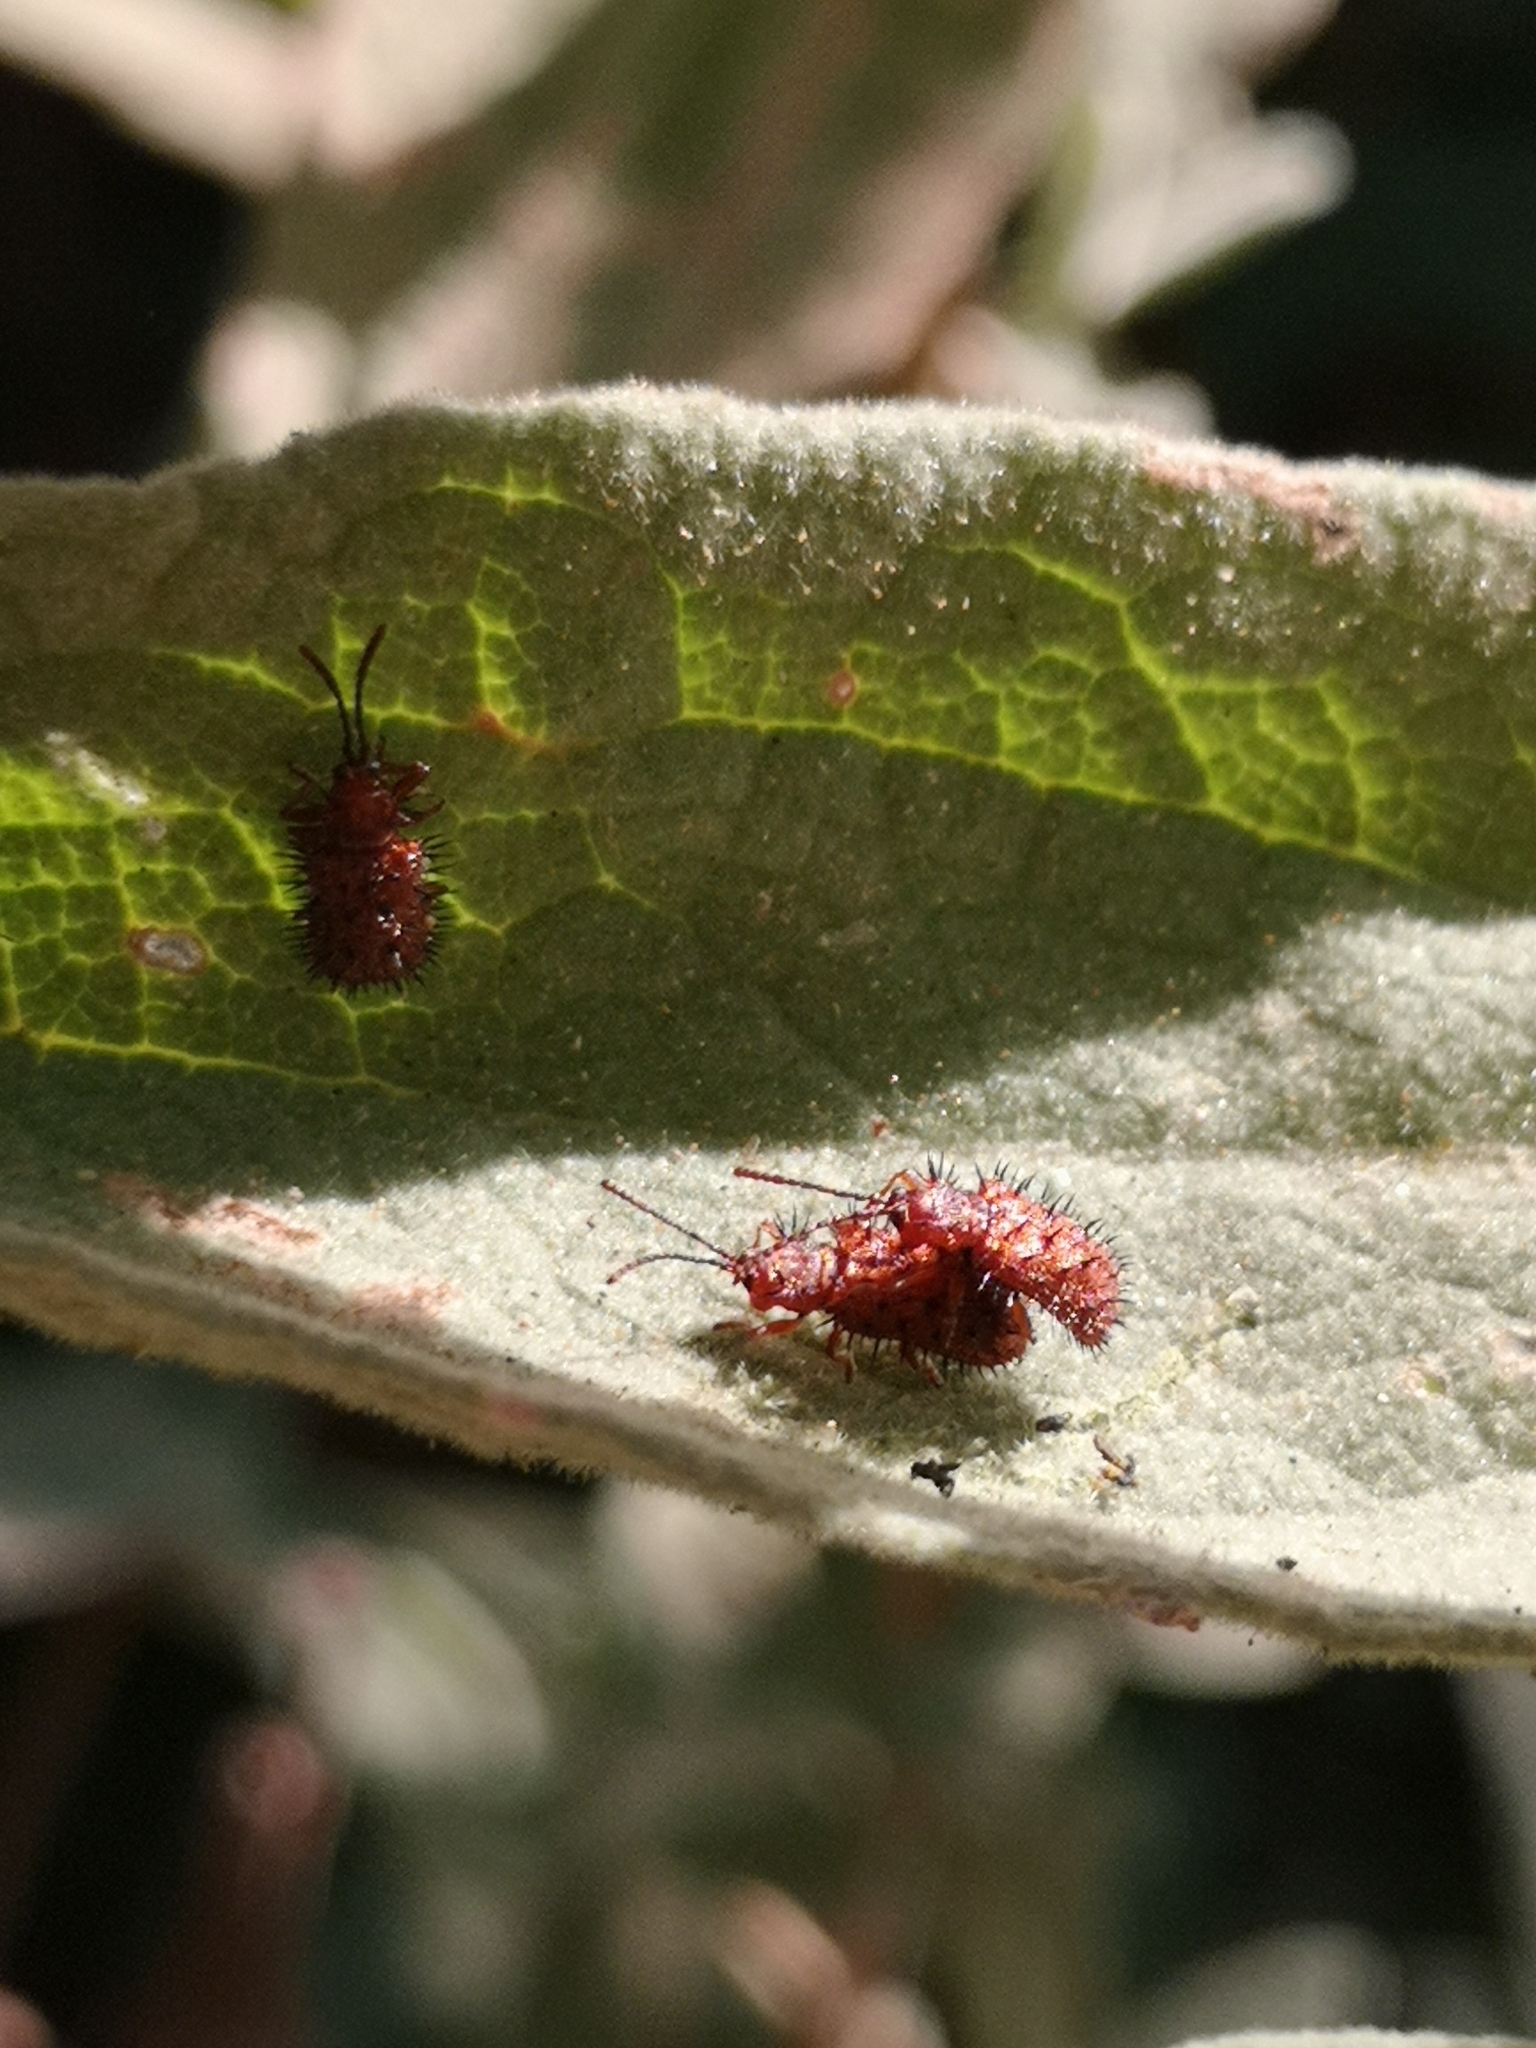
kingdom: Animalia
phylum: Arthropoda
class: Insecta
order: Coleoptera
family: Chrysomelidae
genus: Dicladispa
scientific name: Dicladispa testacea
